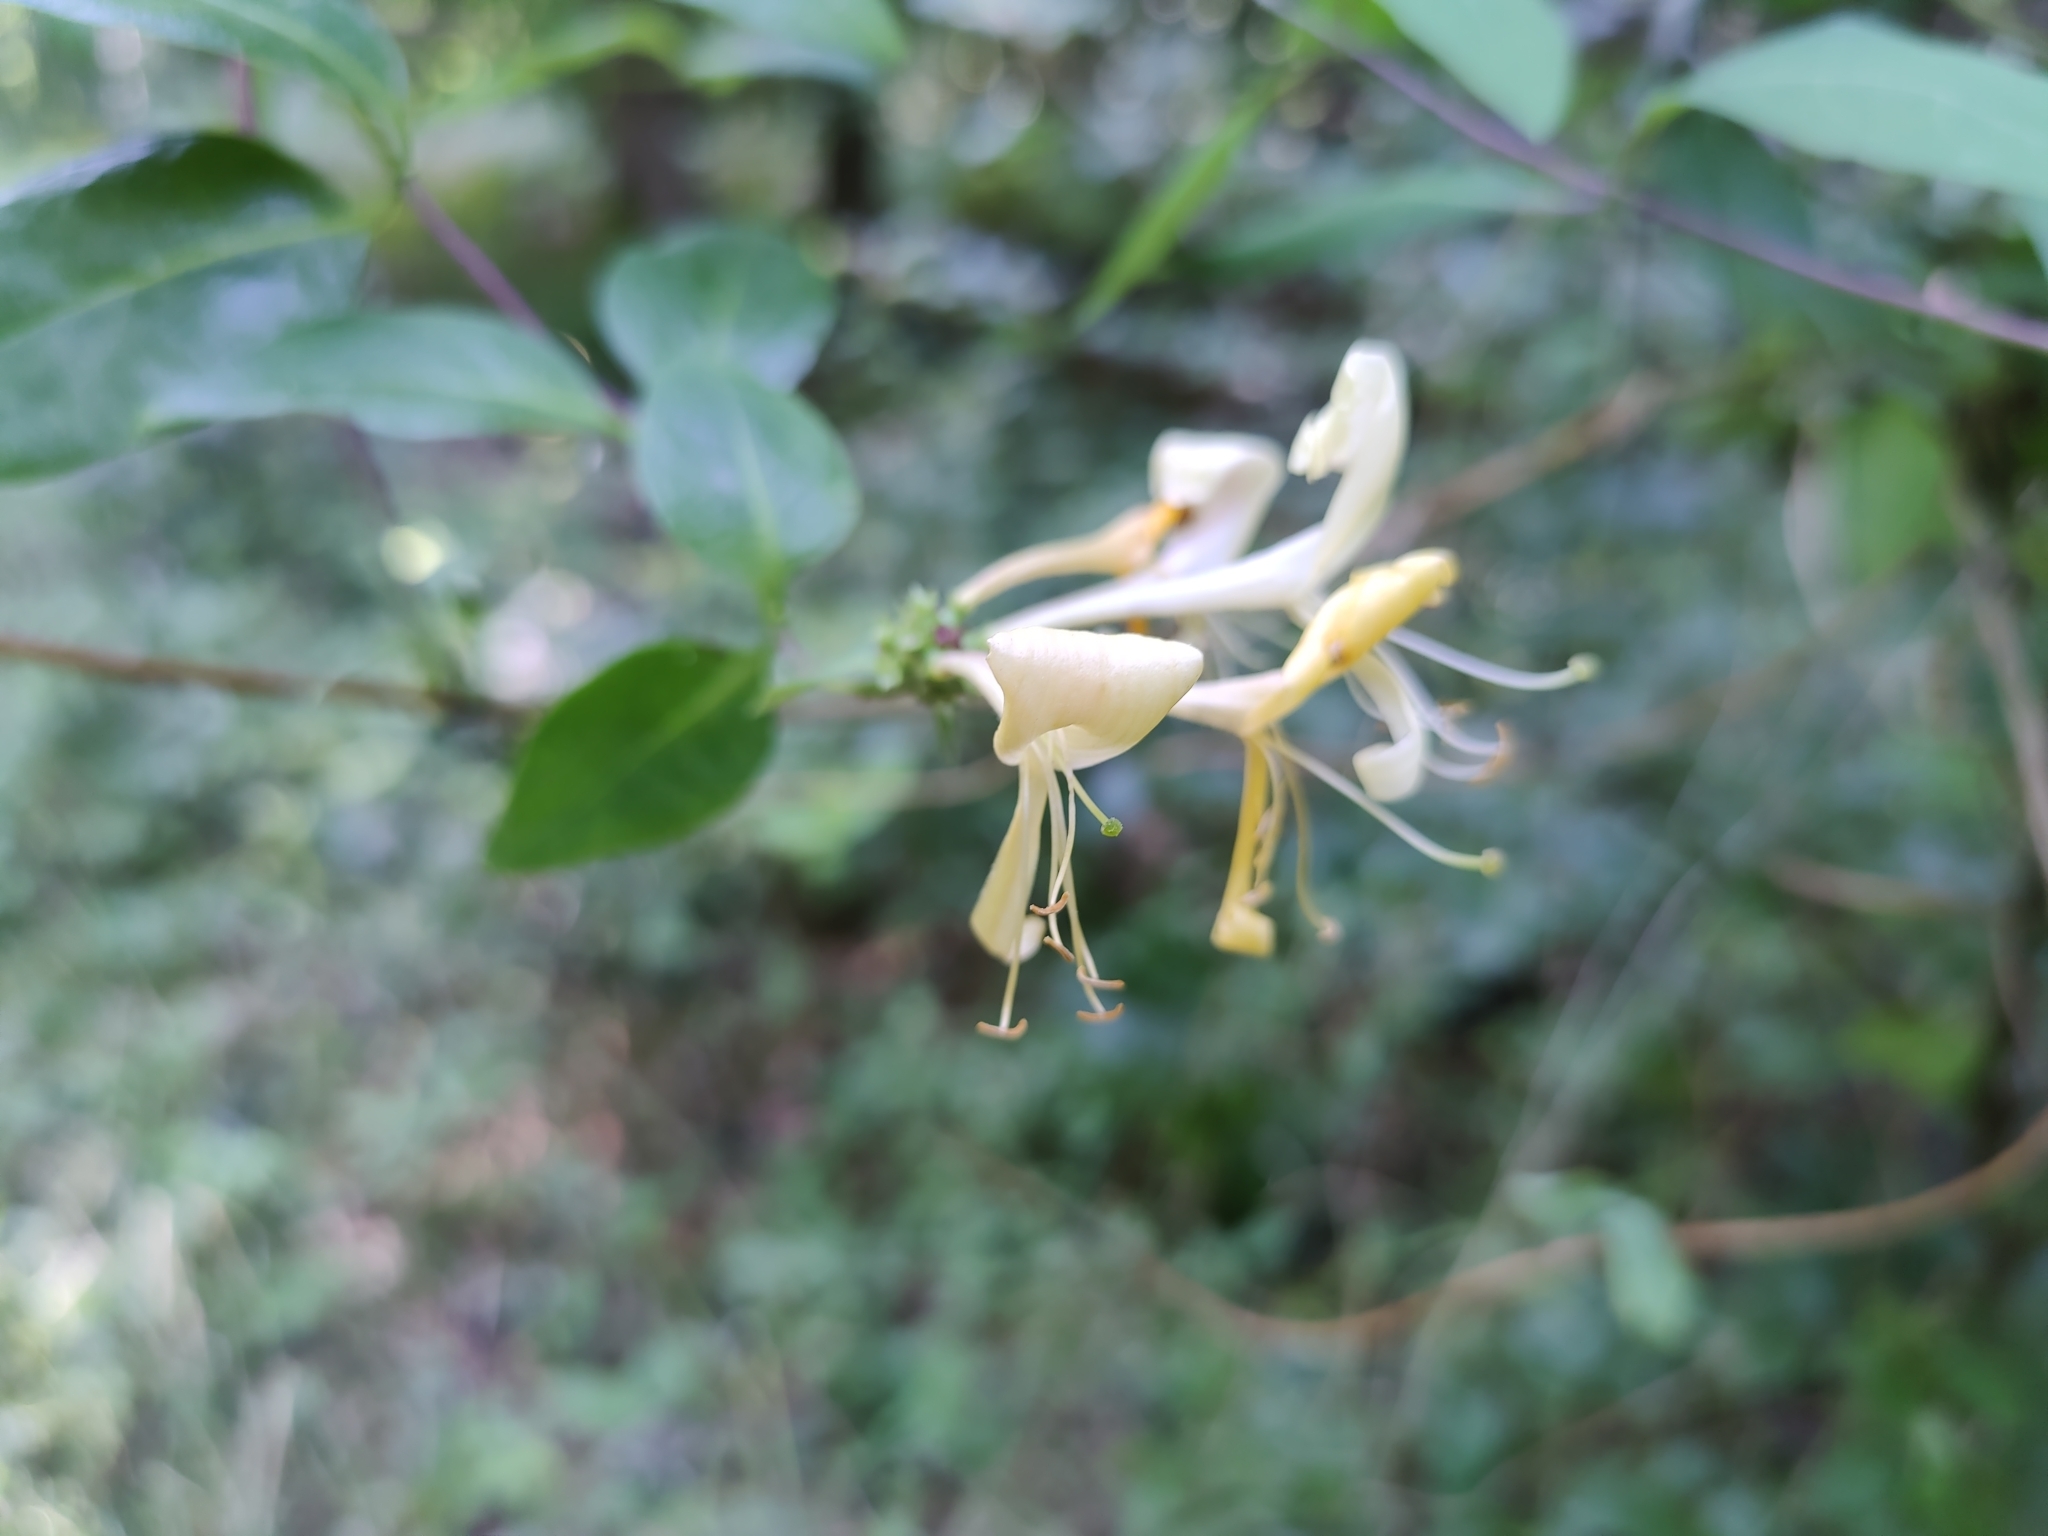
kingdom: Plantae
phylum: Tracheophyta
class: Magnoliopsida
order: Dipsacales
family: Caprifoliaceae
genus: Lonicera
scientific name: Lonicera periclymenum
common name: European honeysuckle
